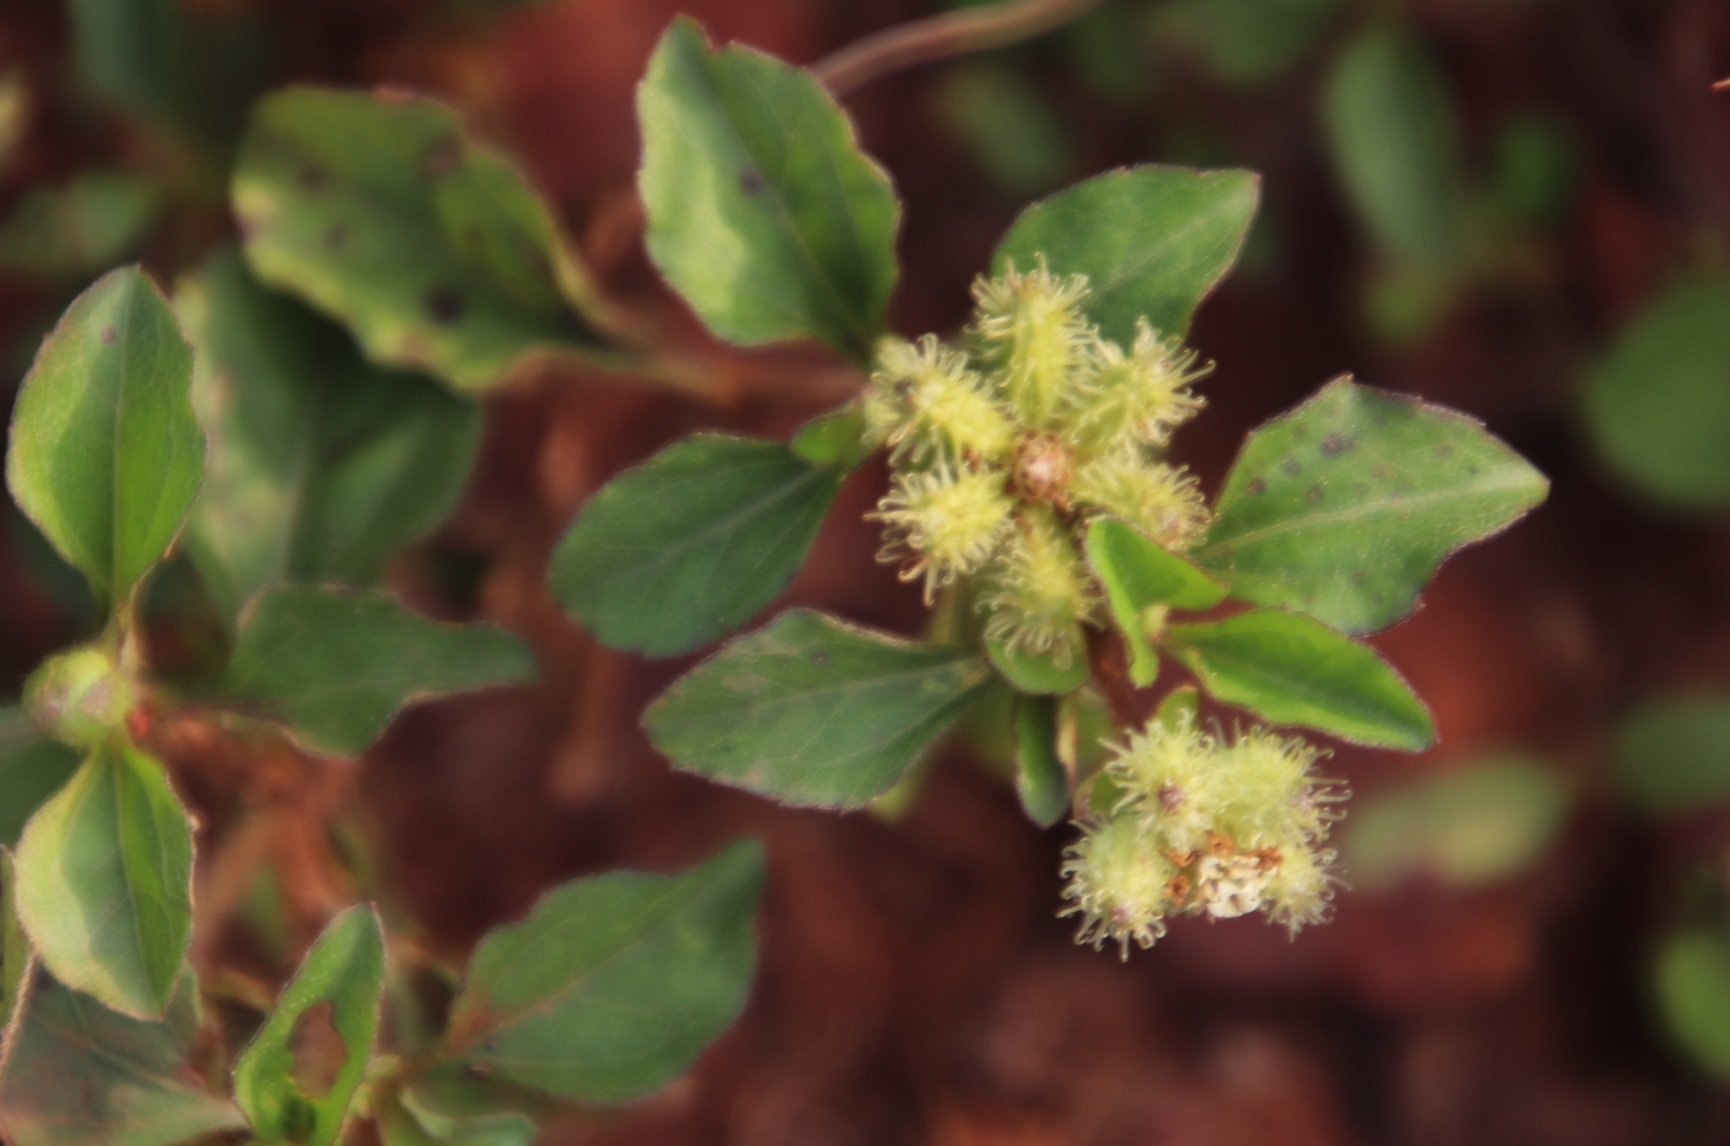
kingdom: Plantae
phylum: Tracheophyta
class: Magnoliopsida
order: Asterales
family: Asteraceae
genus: Acanthospermum
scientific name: Acanthospermum australe
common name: Paraguayan starbur
